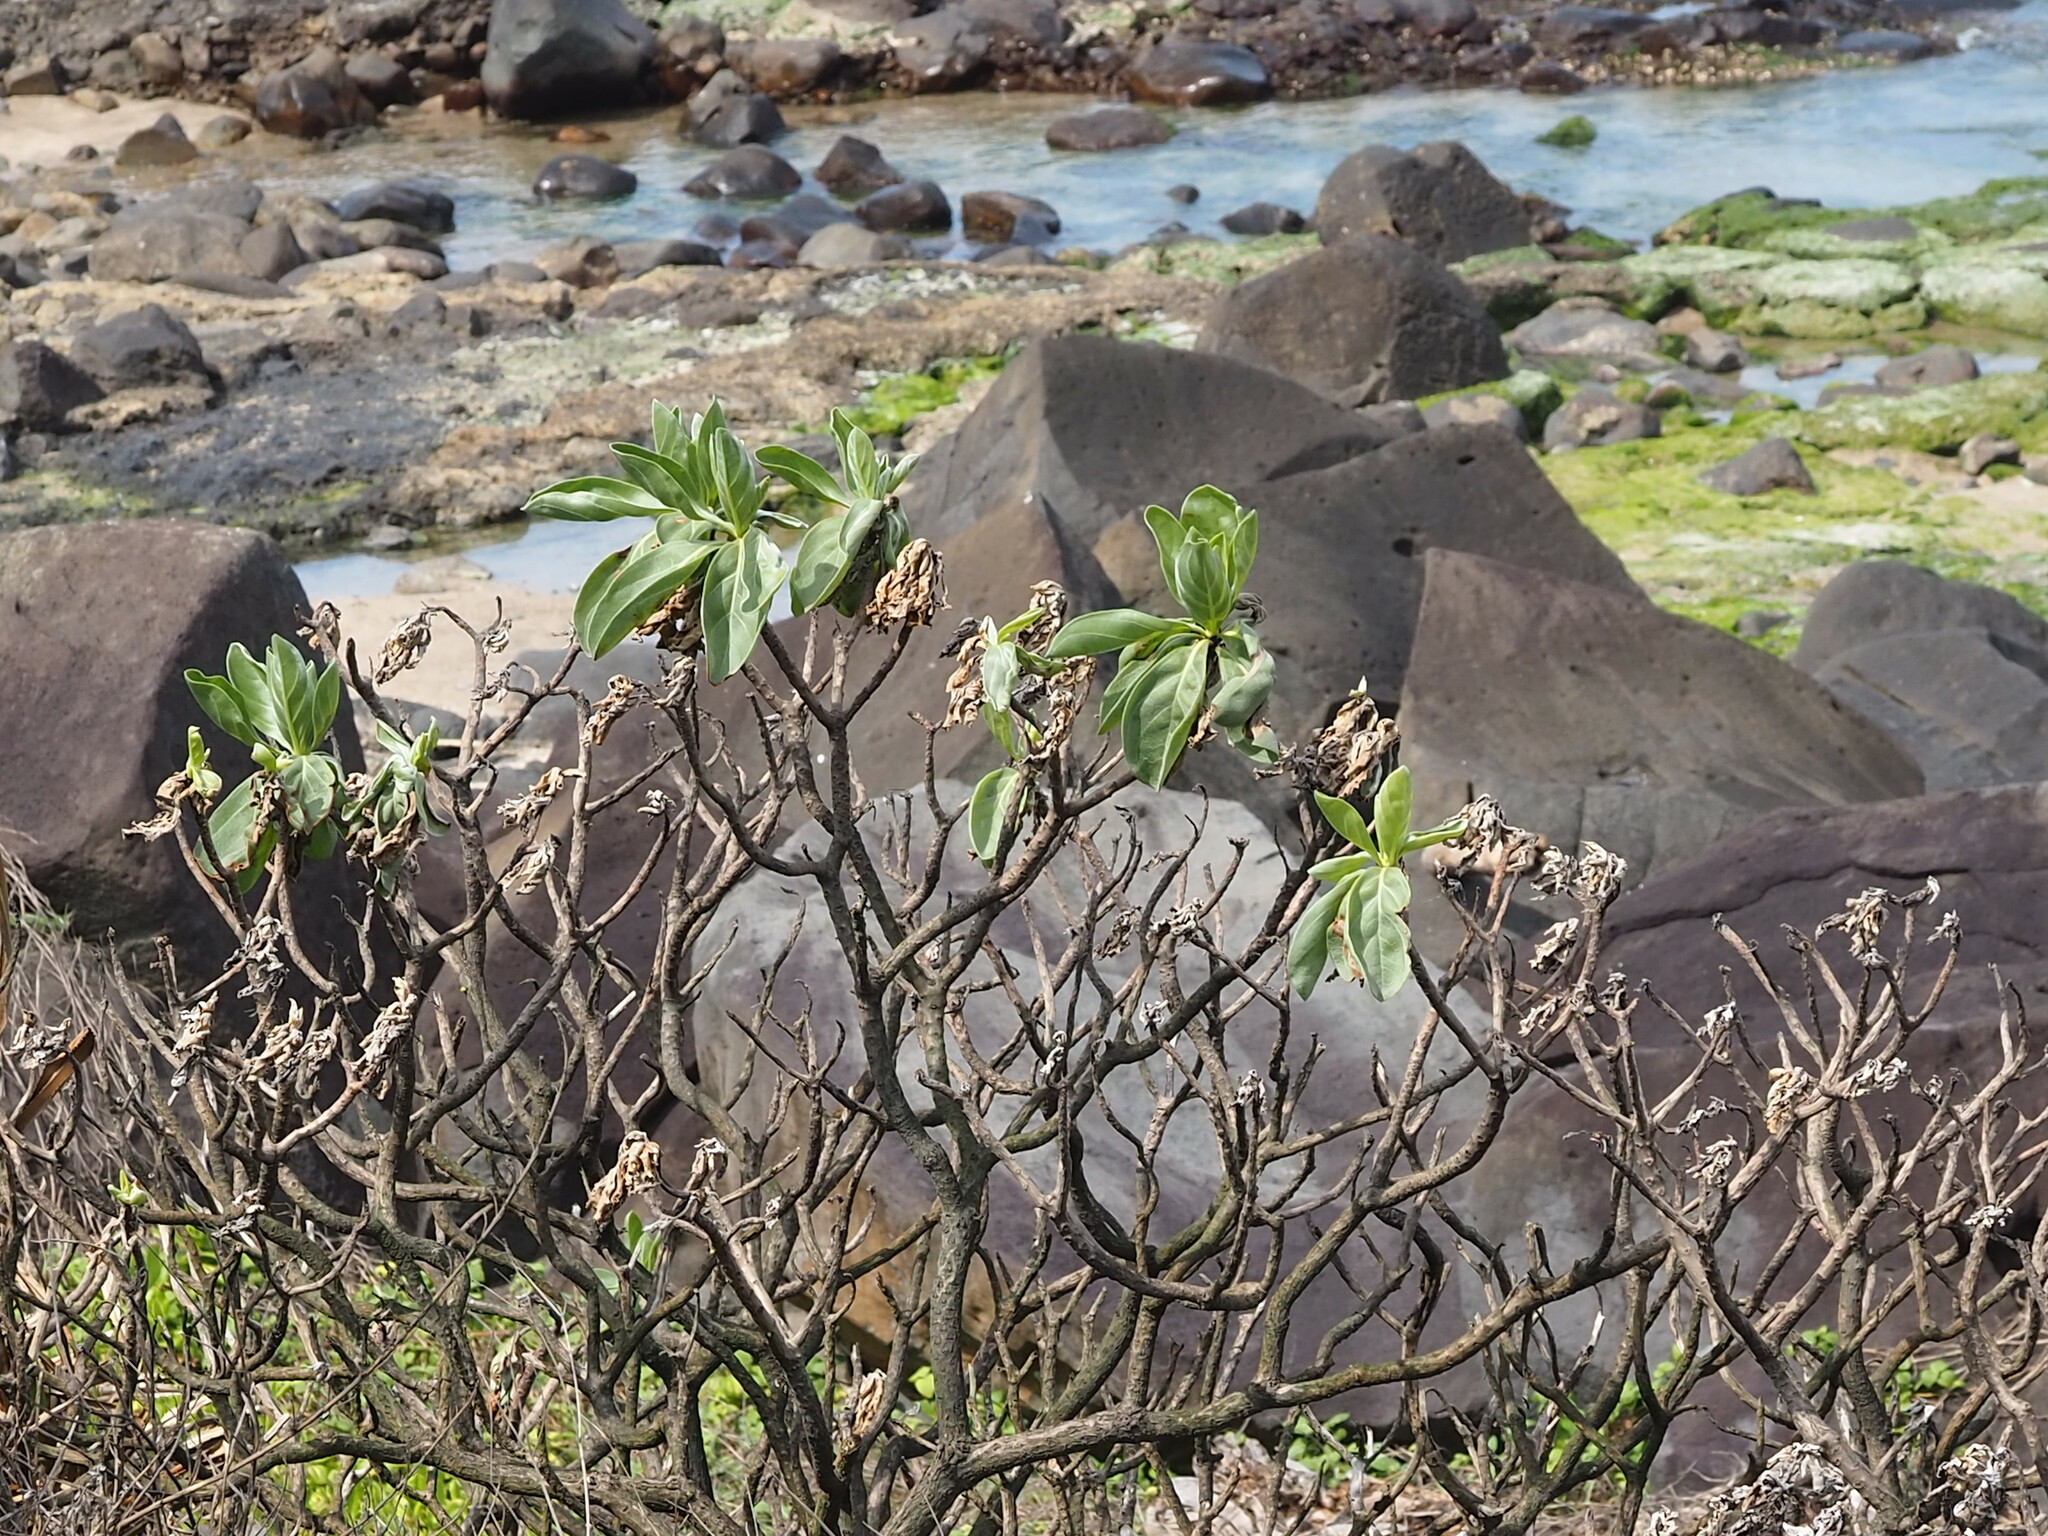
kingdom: Plantae
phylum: Tracheophyta
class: Magnoliopsida
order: Boraginales
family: Heliotropiaceae
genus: Heliotropium
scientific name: Heliotropium velutinum
